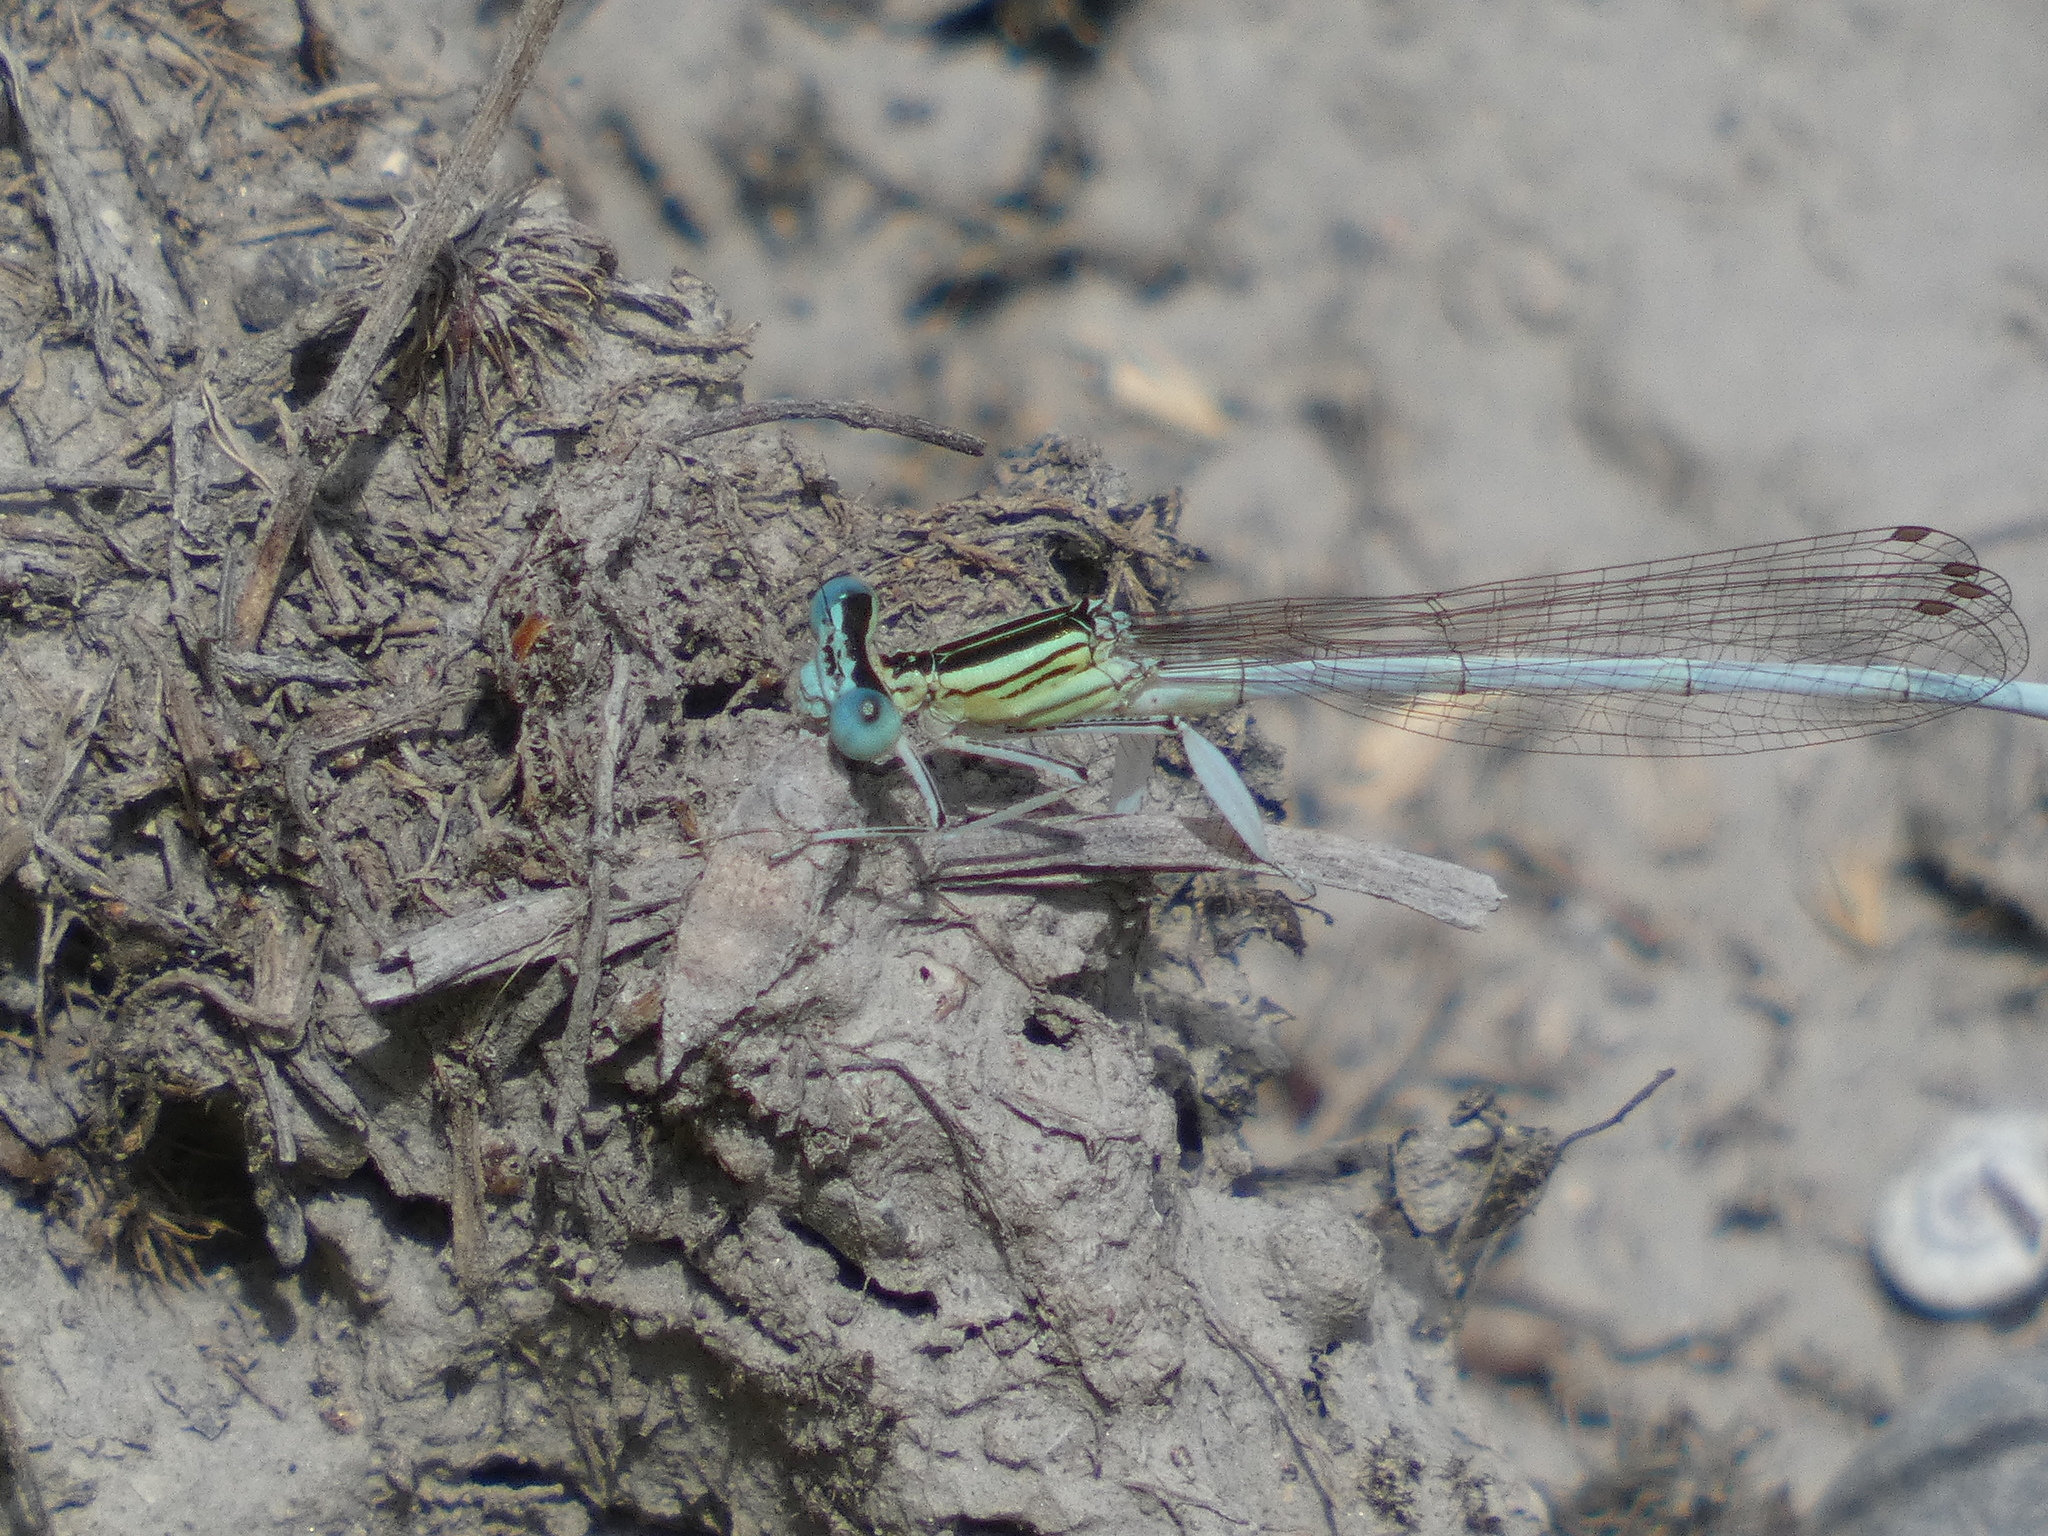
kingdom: Animalia
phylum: Arthropoda
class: Insecta
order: Odonata
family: Platycnemididae
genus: Platycnemis
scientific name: Platycnemis latipes
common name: White featherleg
